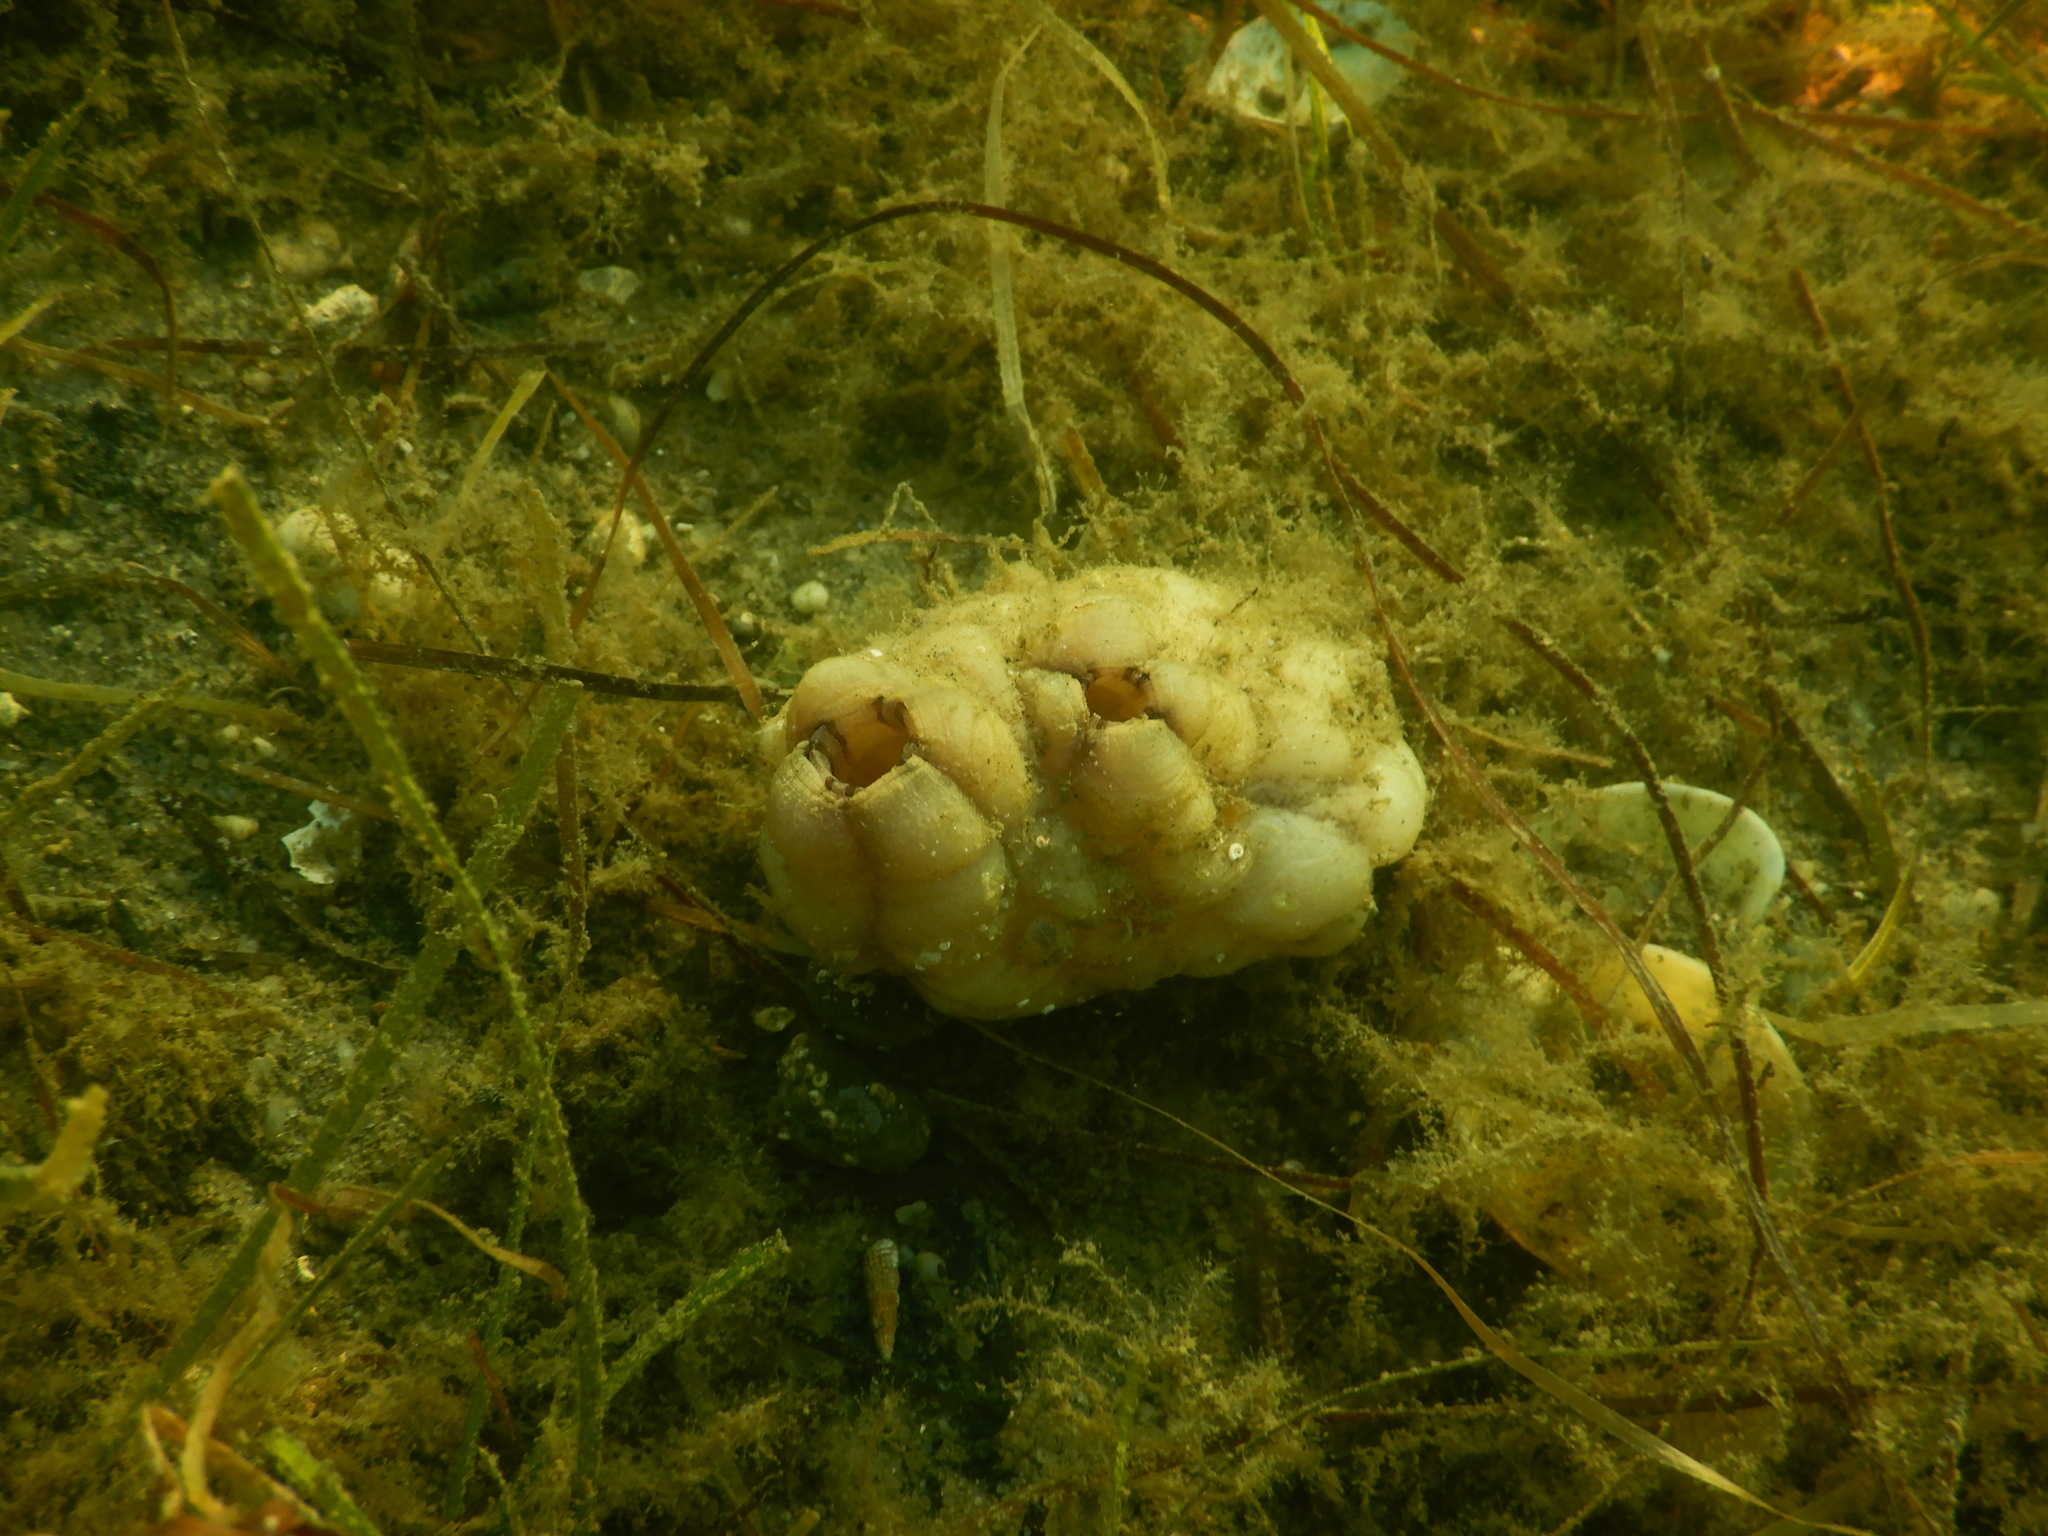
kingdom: Animalia
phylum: Chordata
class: Ascidiacea
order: Stolidobranchia
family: Styelidae
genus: Styela
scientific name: Styela plicata
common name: Pleated tunicate
